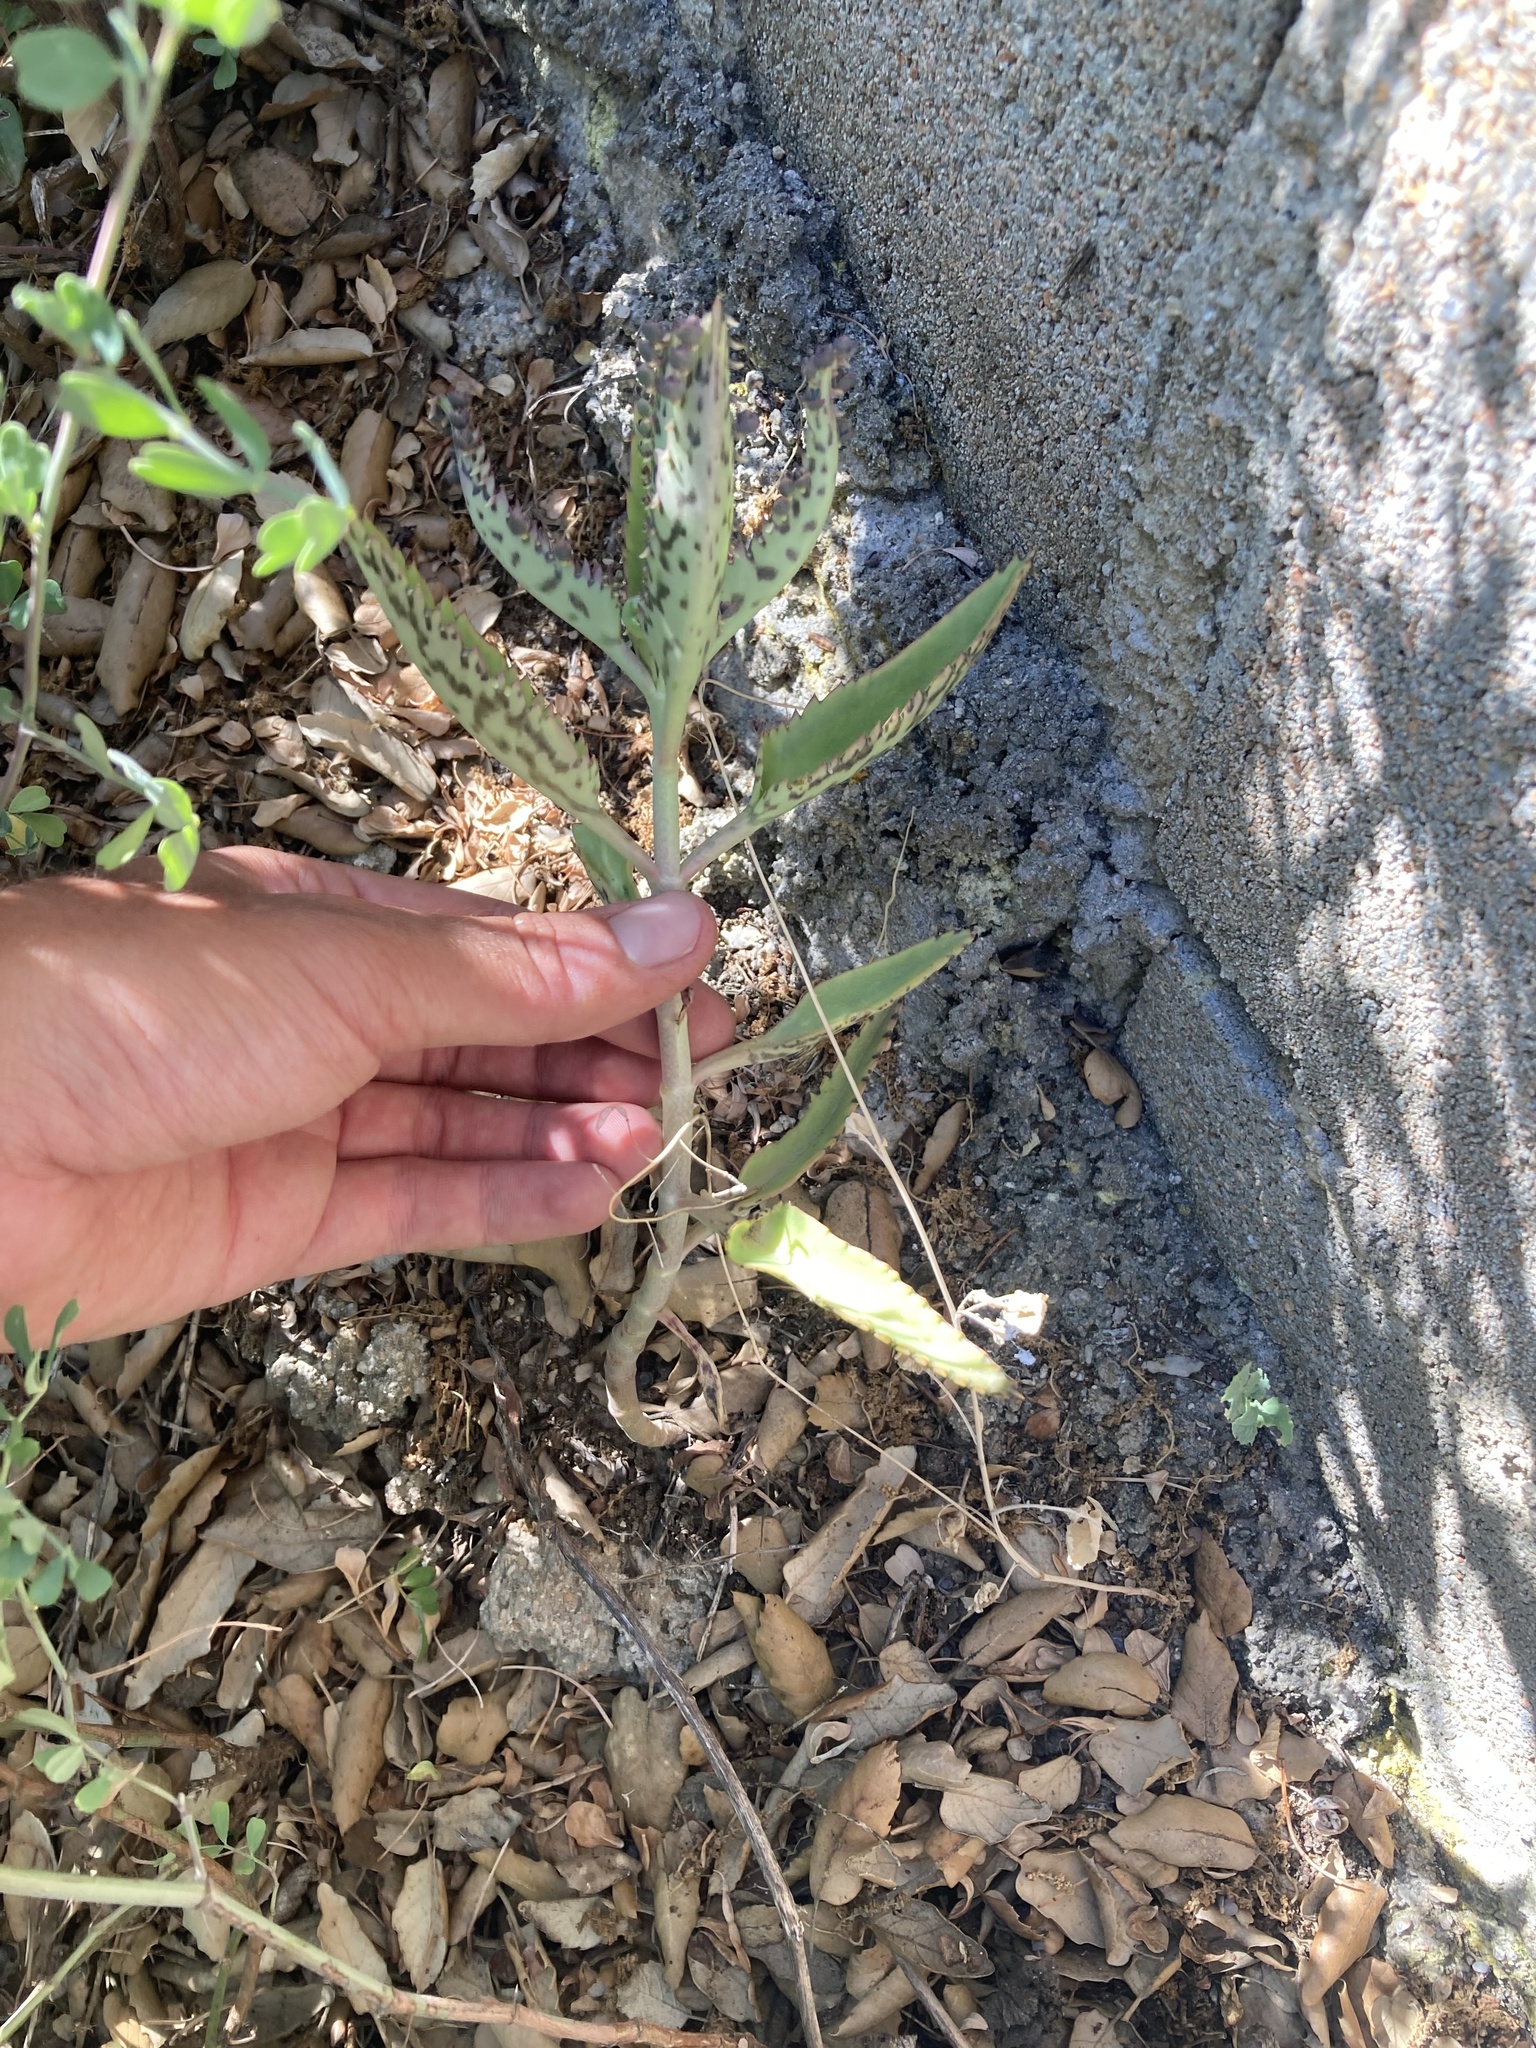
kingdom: Plantae
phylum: Tracheophyta
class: Magnoliopsida
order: Saxifragales
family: Crassulaceae
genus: Kalanchoe
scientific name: Kalanchoe houghtonii
